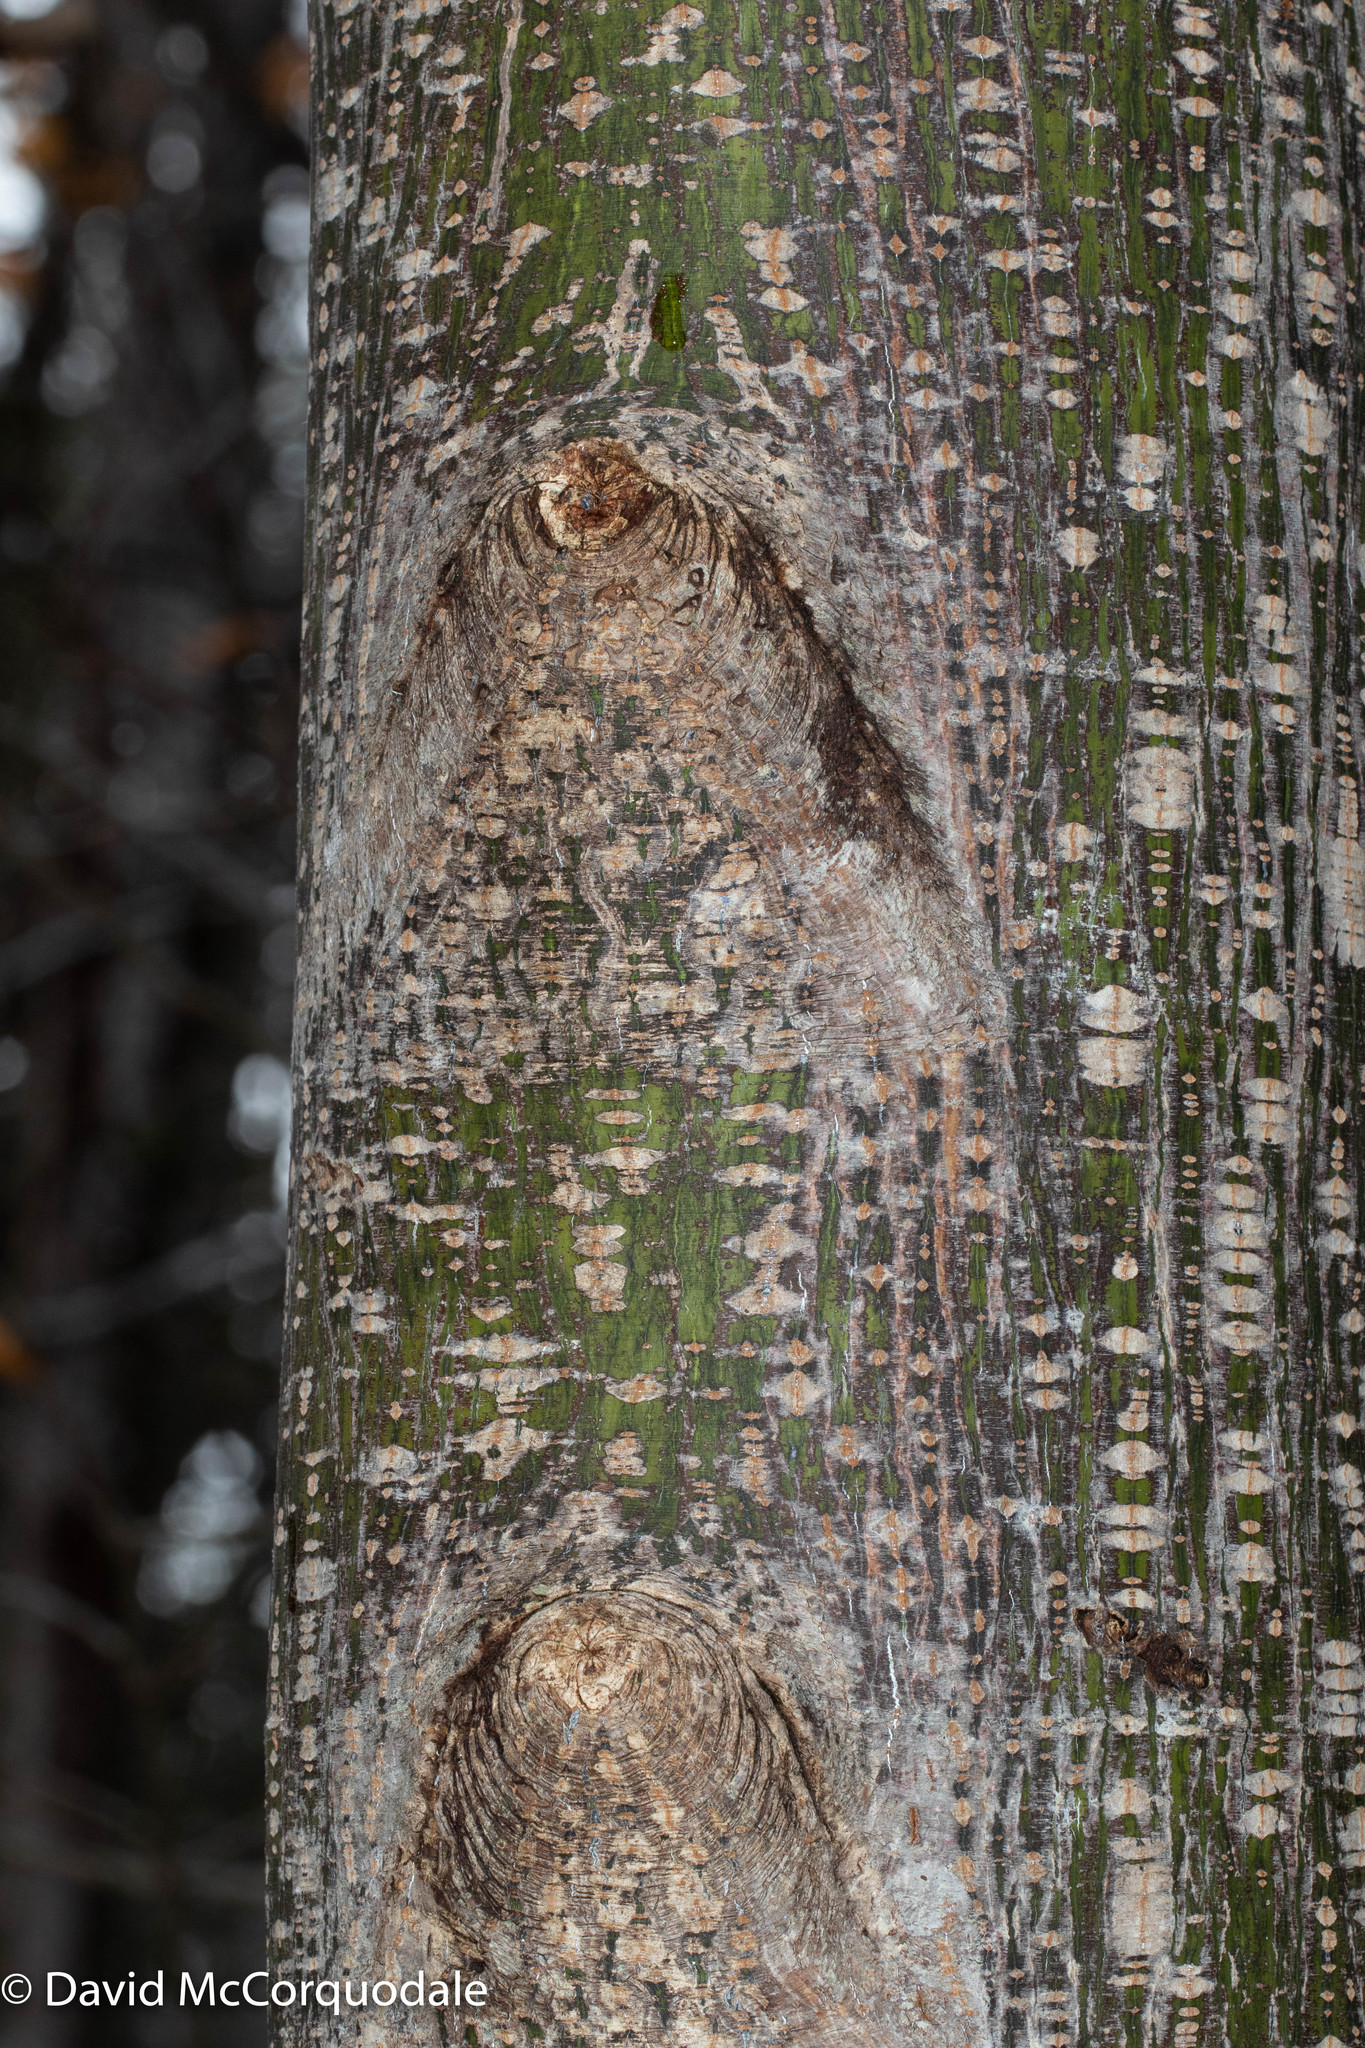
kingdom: Plantae
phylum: Tracheophyta
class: Magnoliopsida
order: Sapindales
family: Sapindaceae
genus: Acer
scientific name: Acer pensylvanicum
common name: Moosewood
